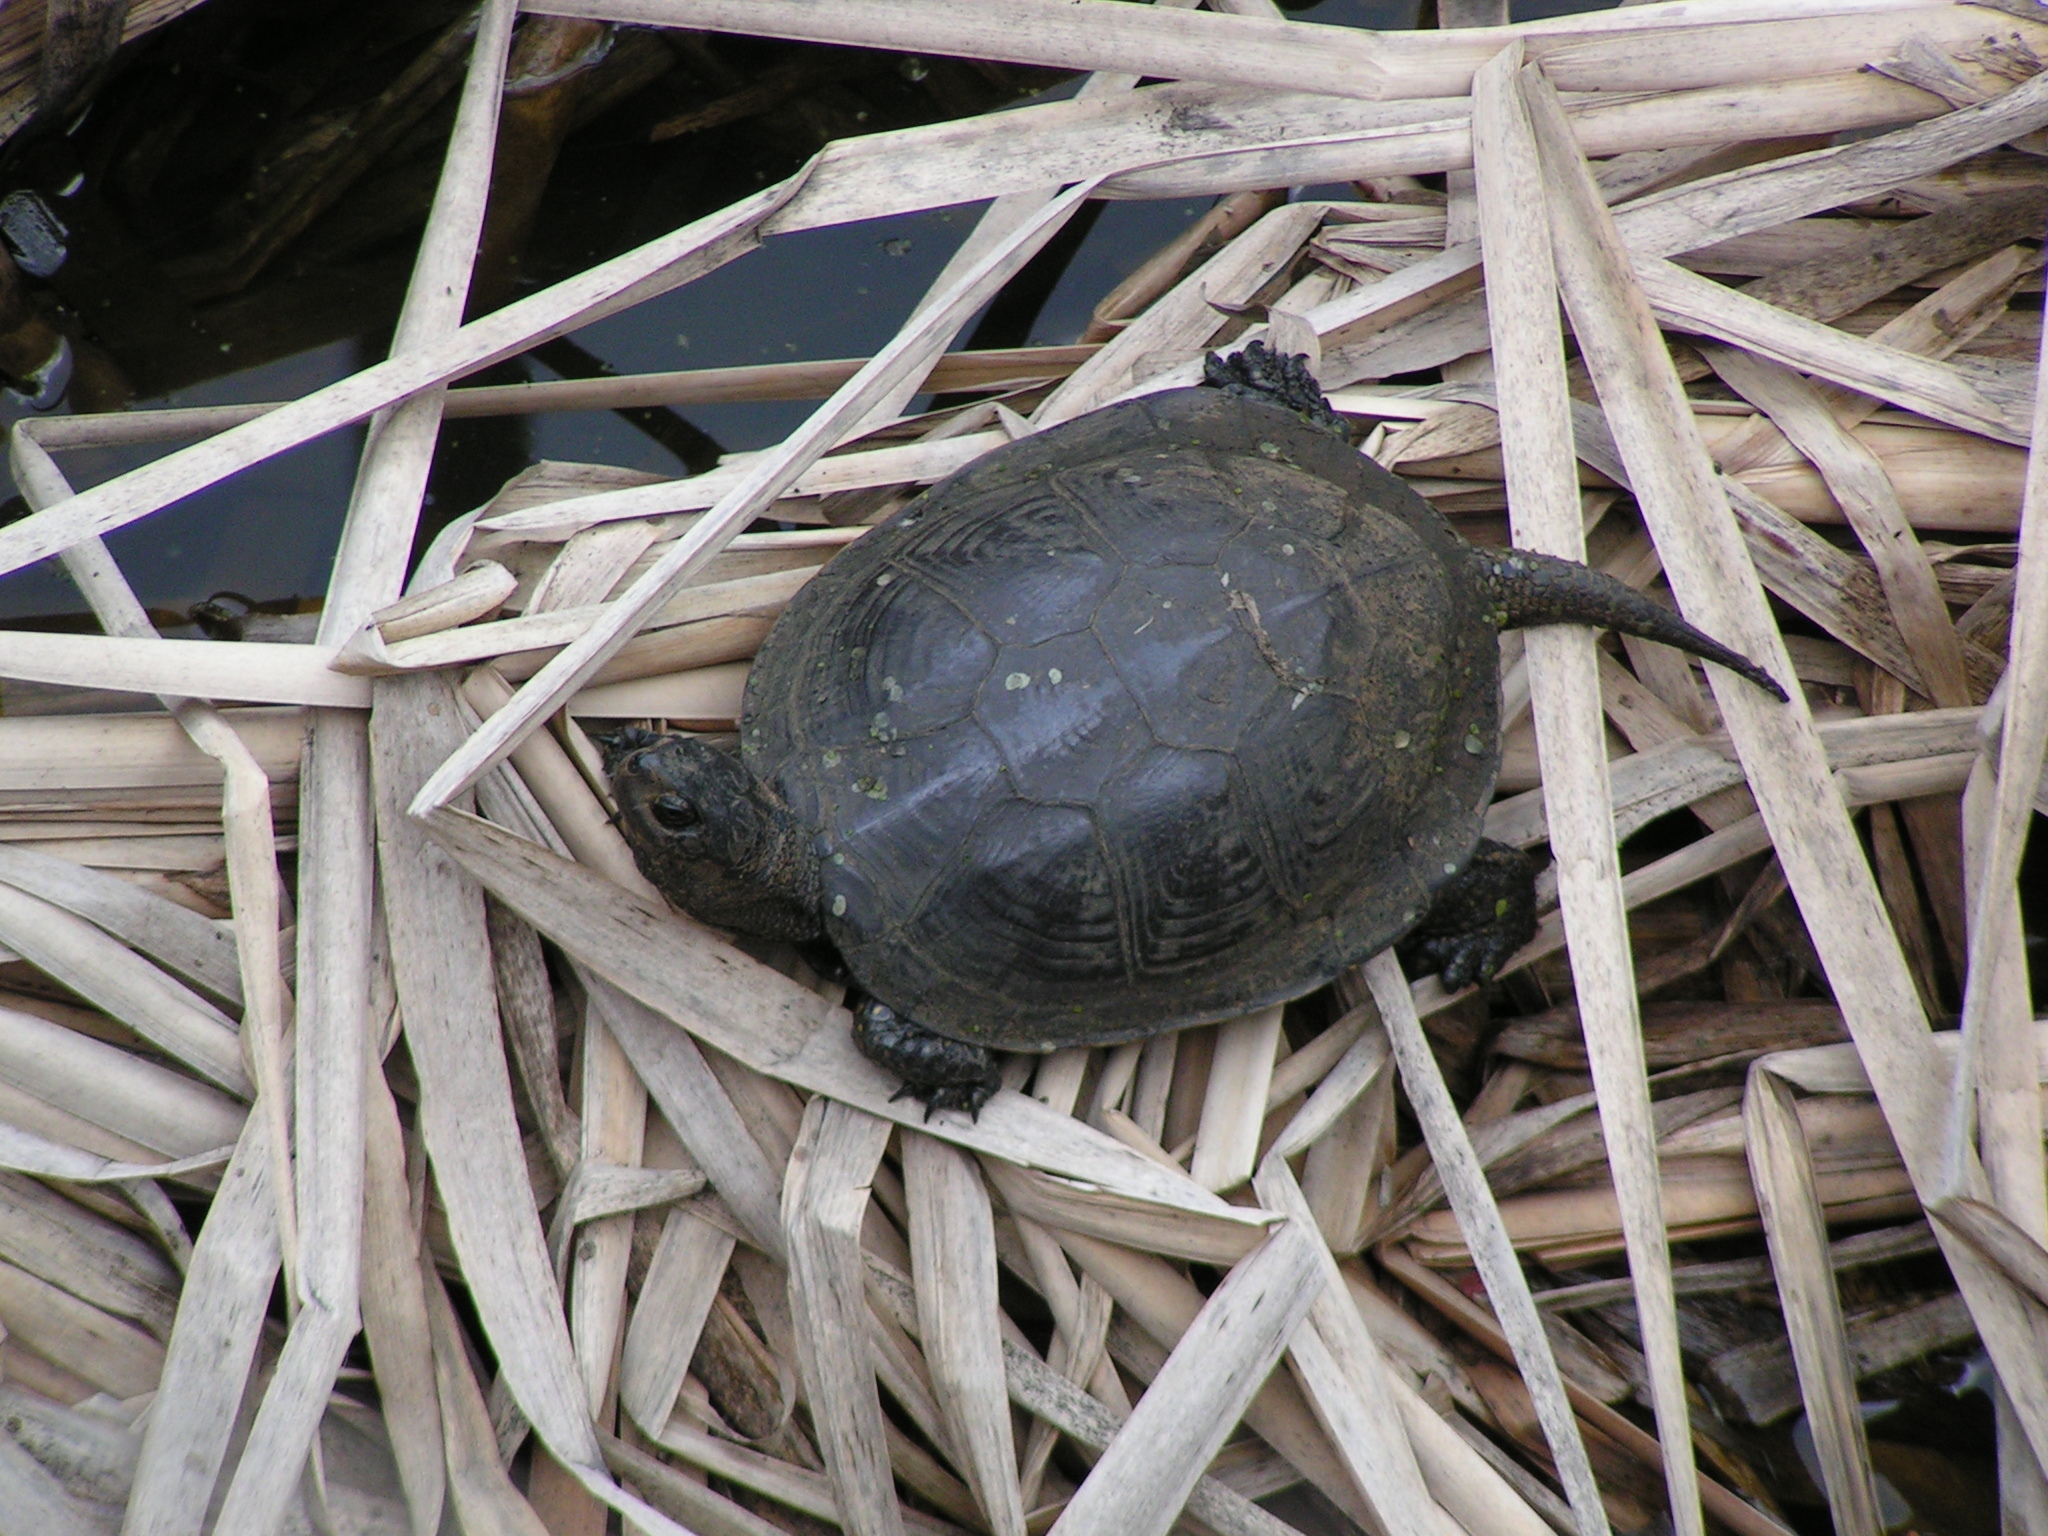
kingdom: Animalia
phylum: Chordata
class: Testudines
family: Emydidae
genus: Emys
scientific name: Emys orbicularis
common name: European pond turtle
